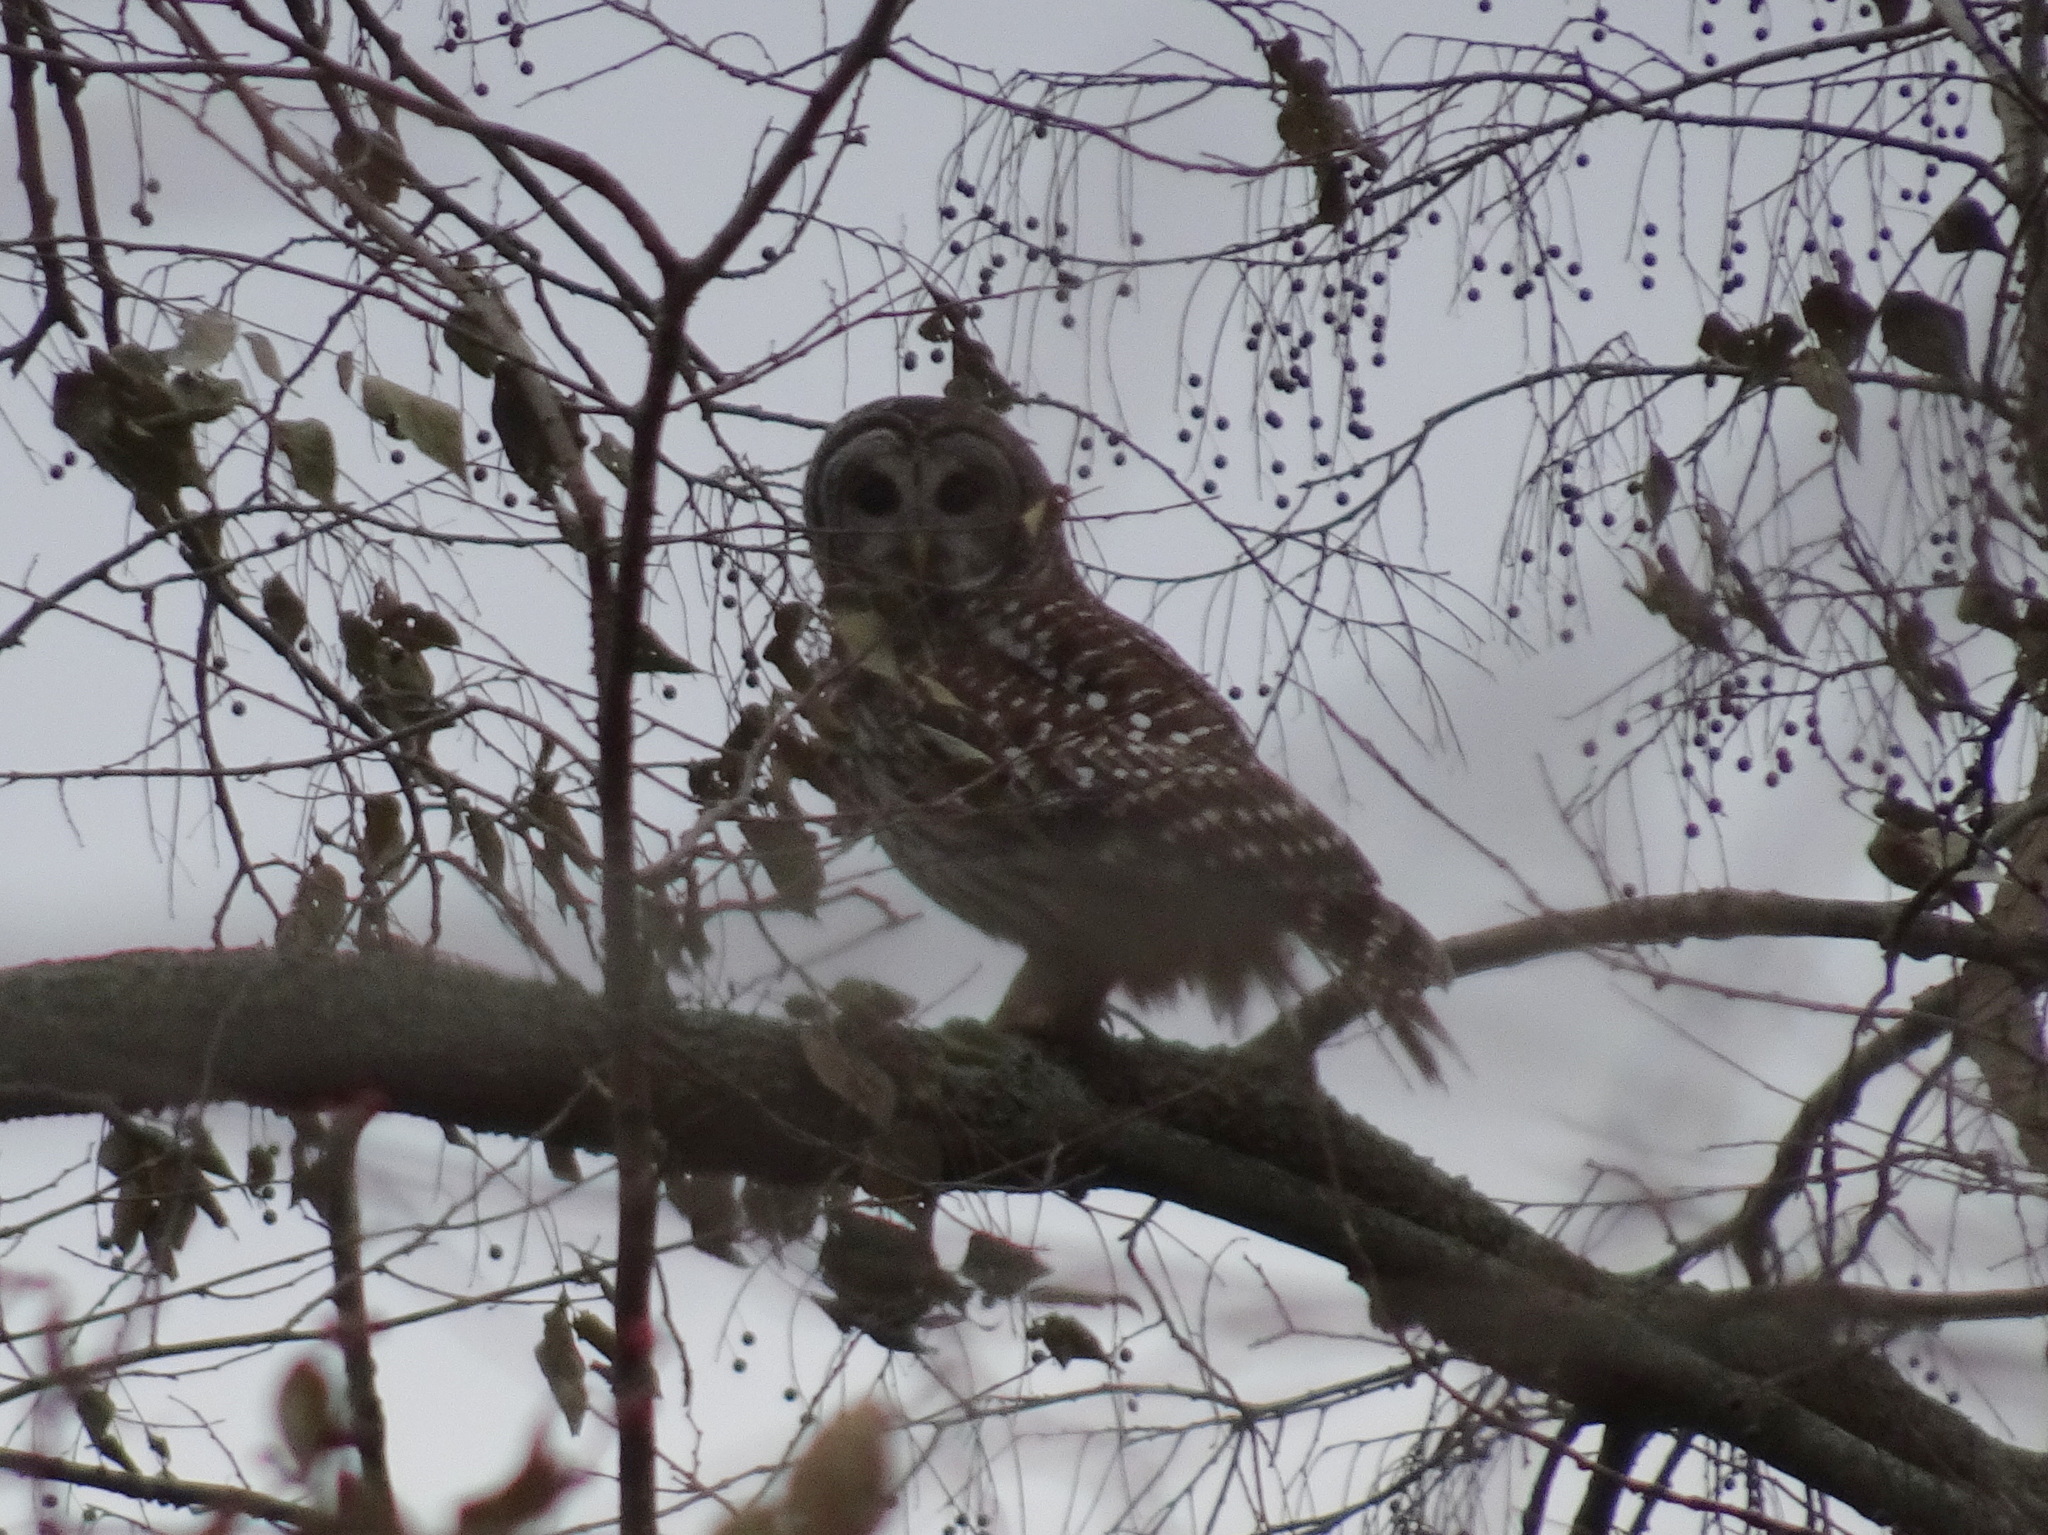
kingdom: Animalia
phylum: Chordata
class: Aves
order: Strigiformes
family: Strigidae
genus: Strix
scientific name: Strix varia
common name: Barred owl
